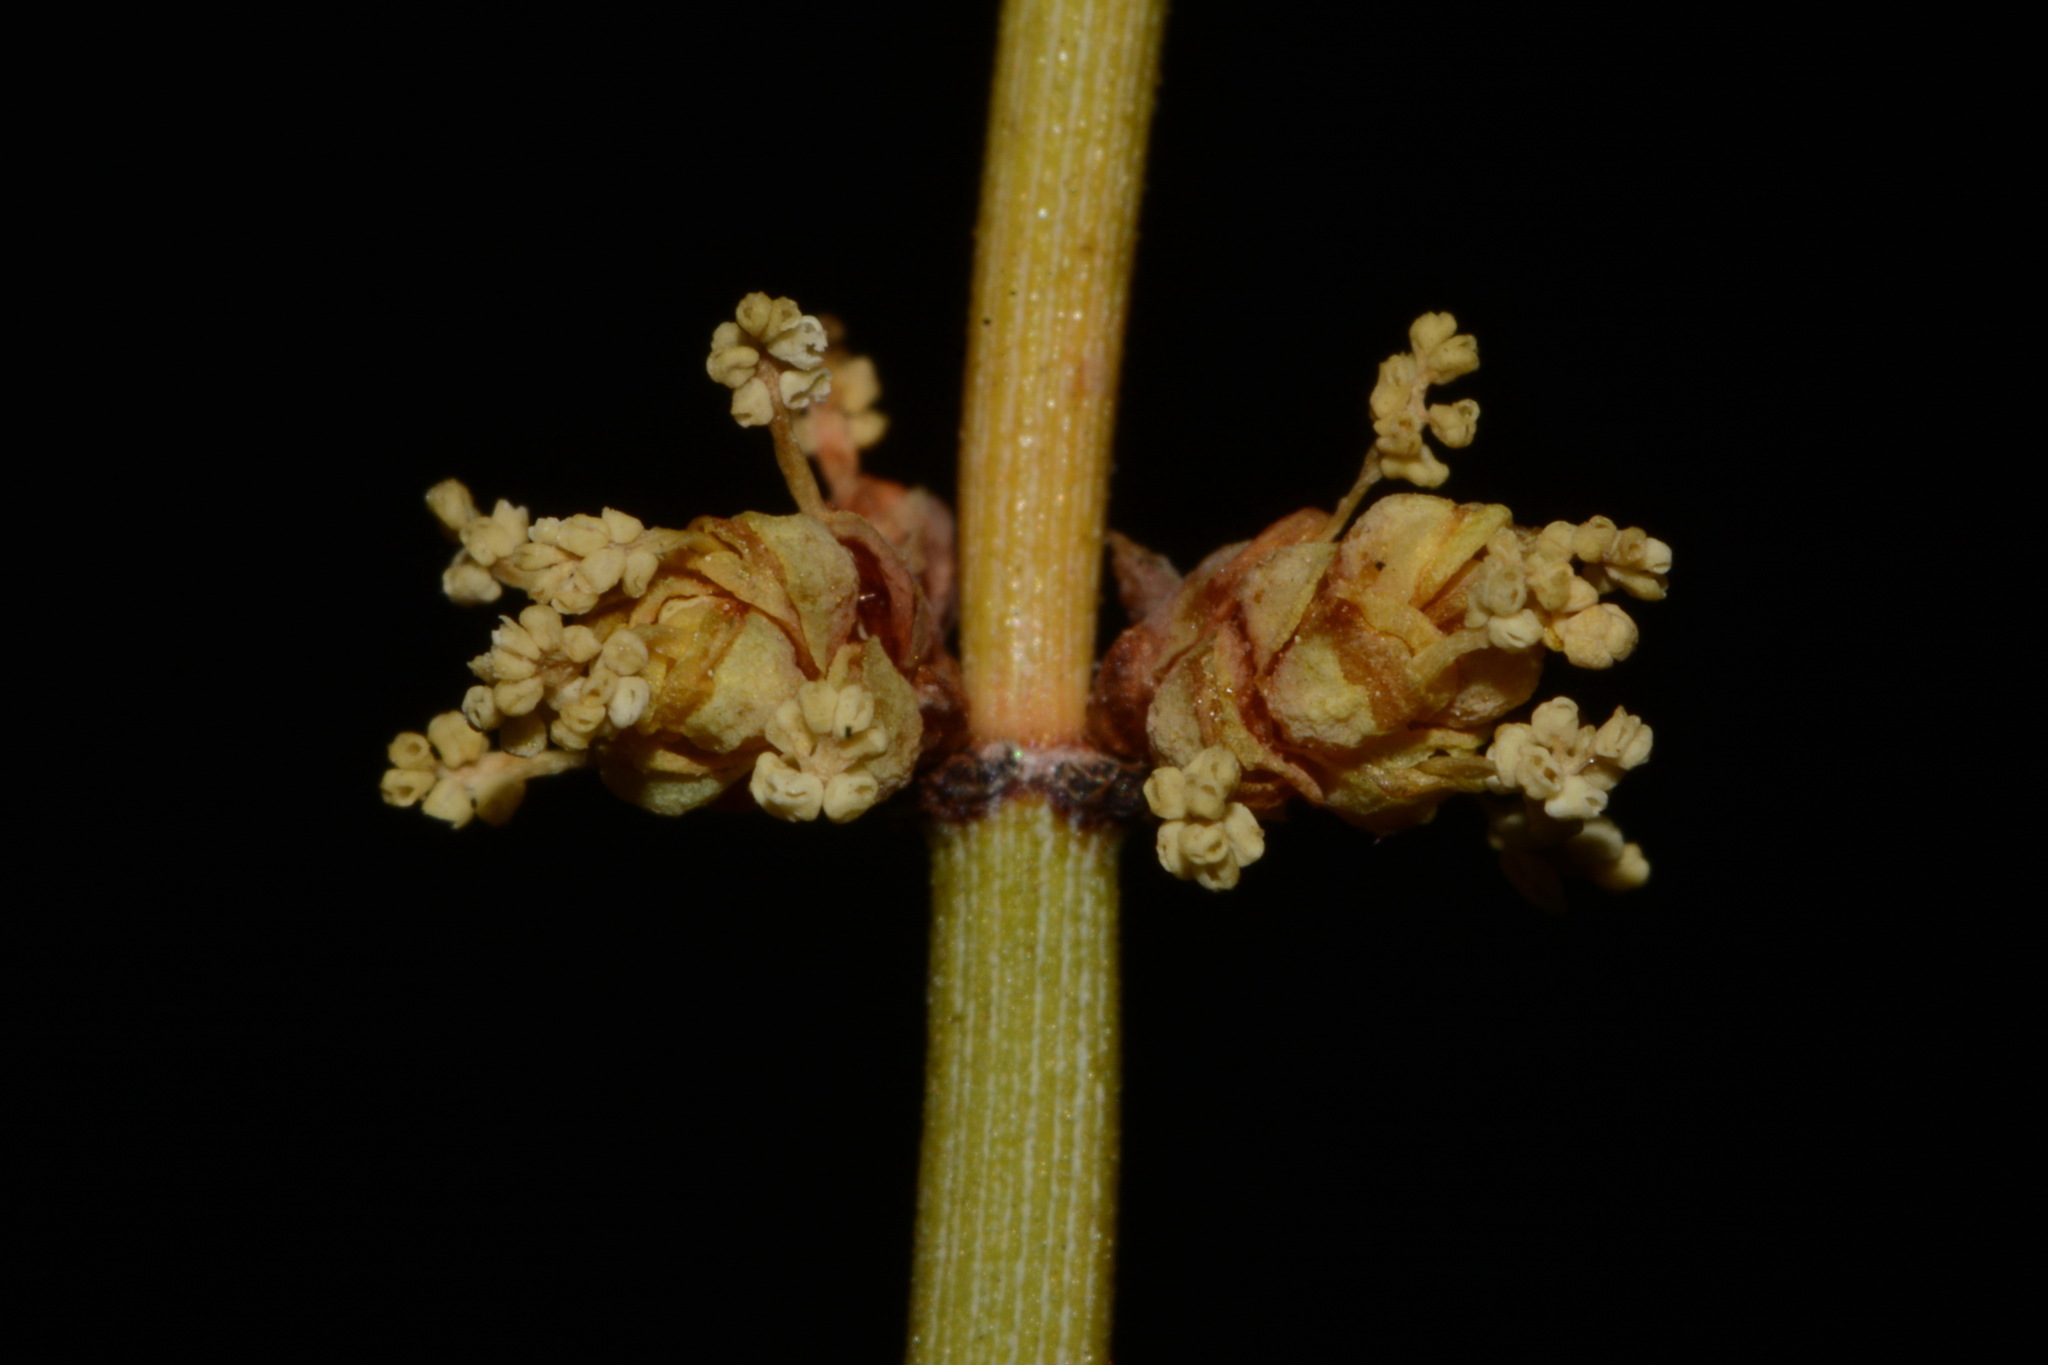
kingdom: Plantae
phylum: Tracheophyta
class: Gnetopsida
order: Ephedrales
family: Ephedraceae
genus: Ephedra
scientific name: Ephedra viridis
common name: Green ephedra
